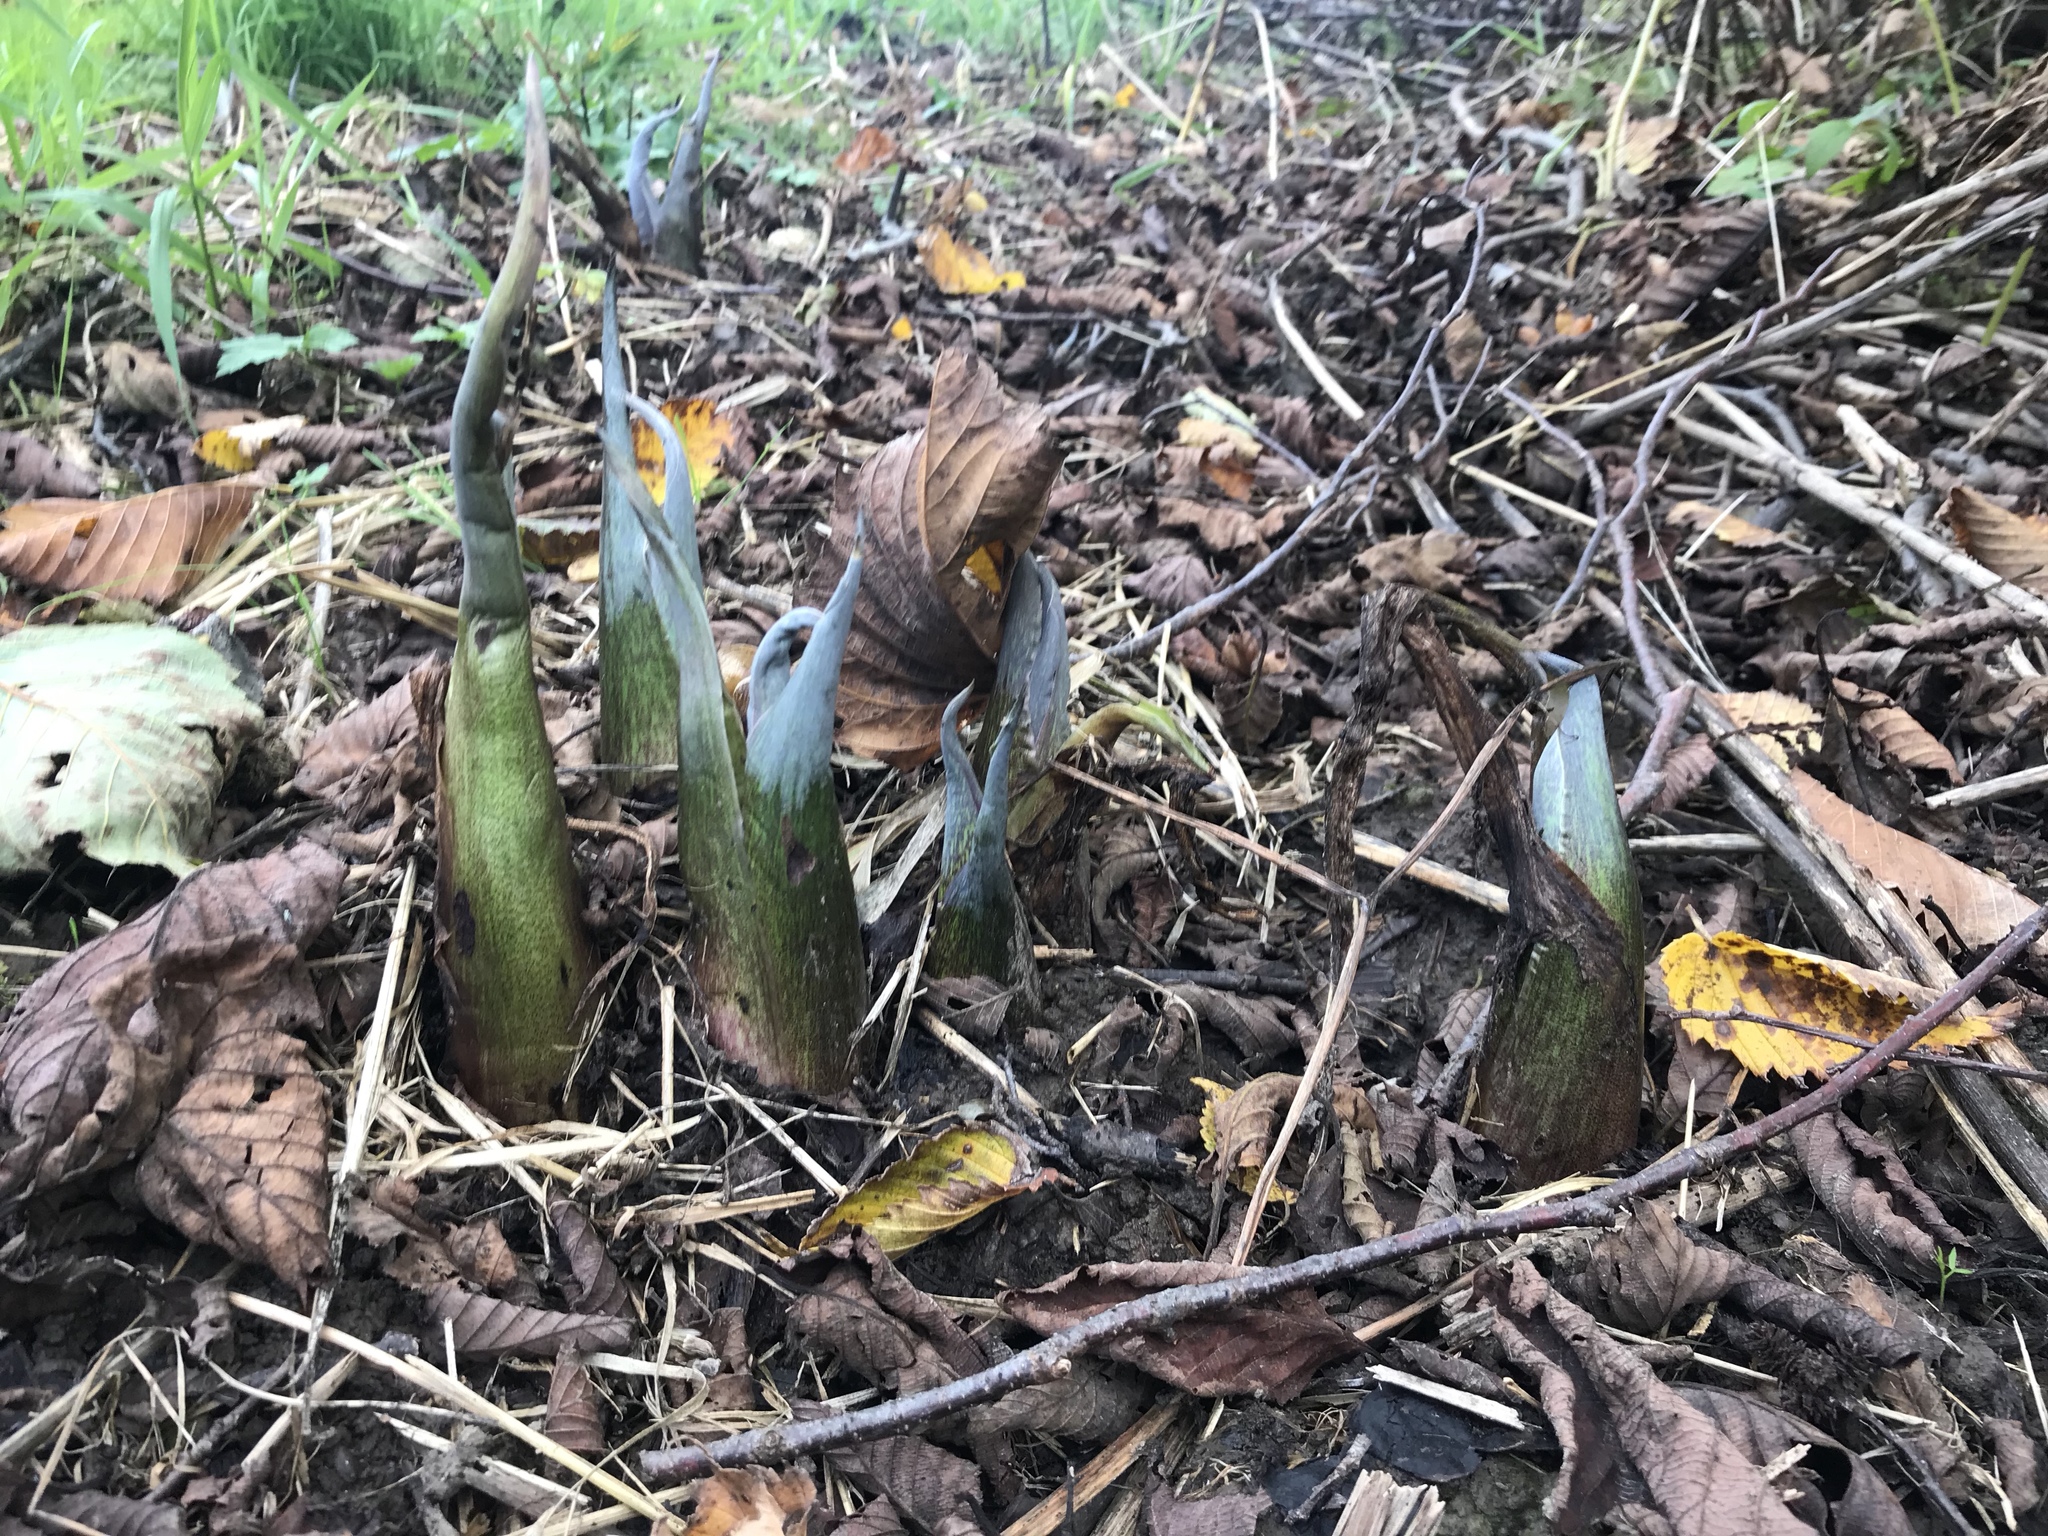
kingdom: Plantae
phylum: Tracheophyta
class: Liliopsida
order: Alismatales
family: Araceae
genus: Symplocarpus
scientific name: Symplocarpus foetidus
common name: Eastern skunk cabbage
